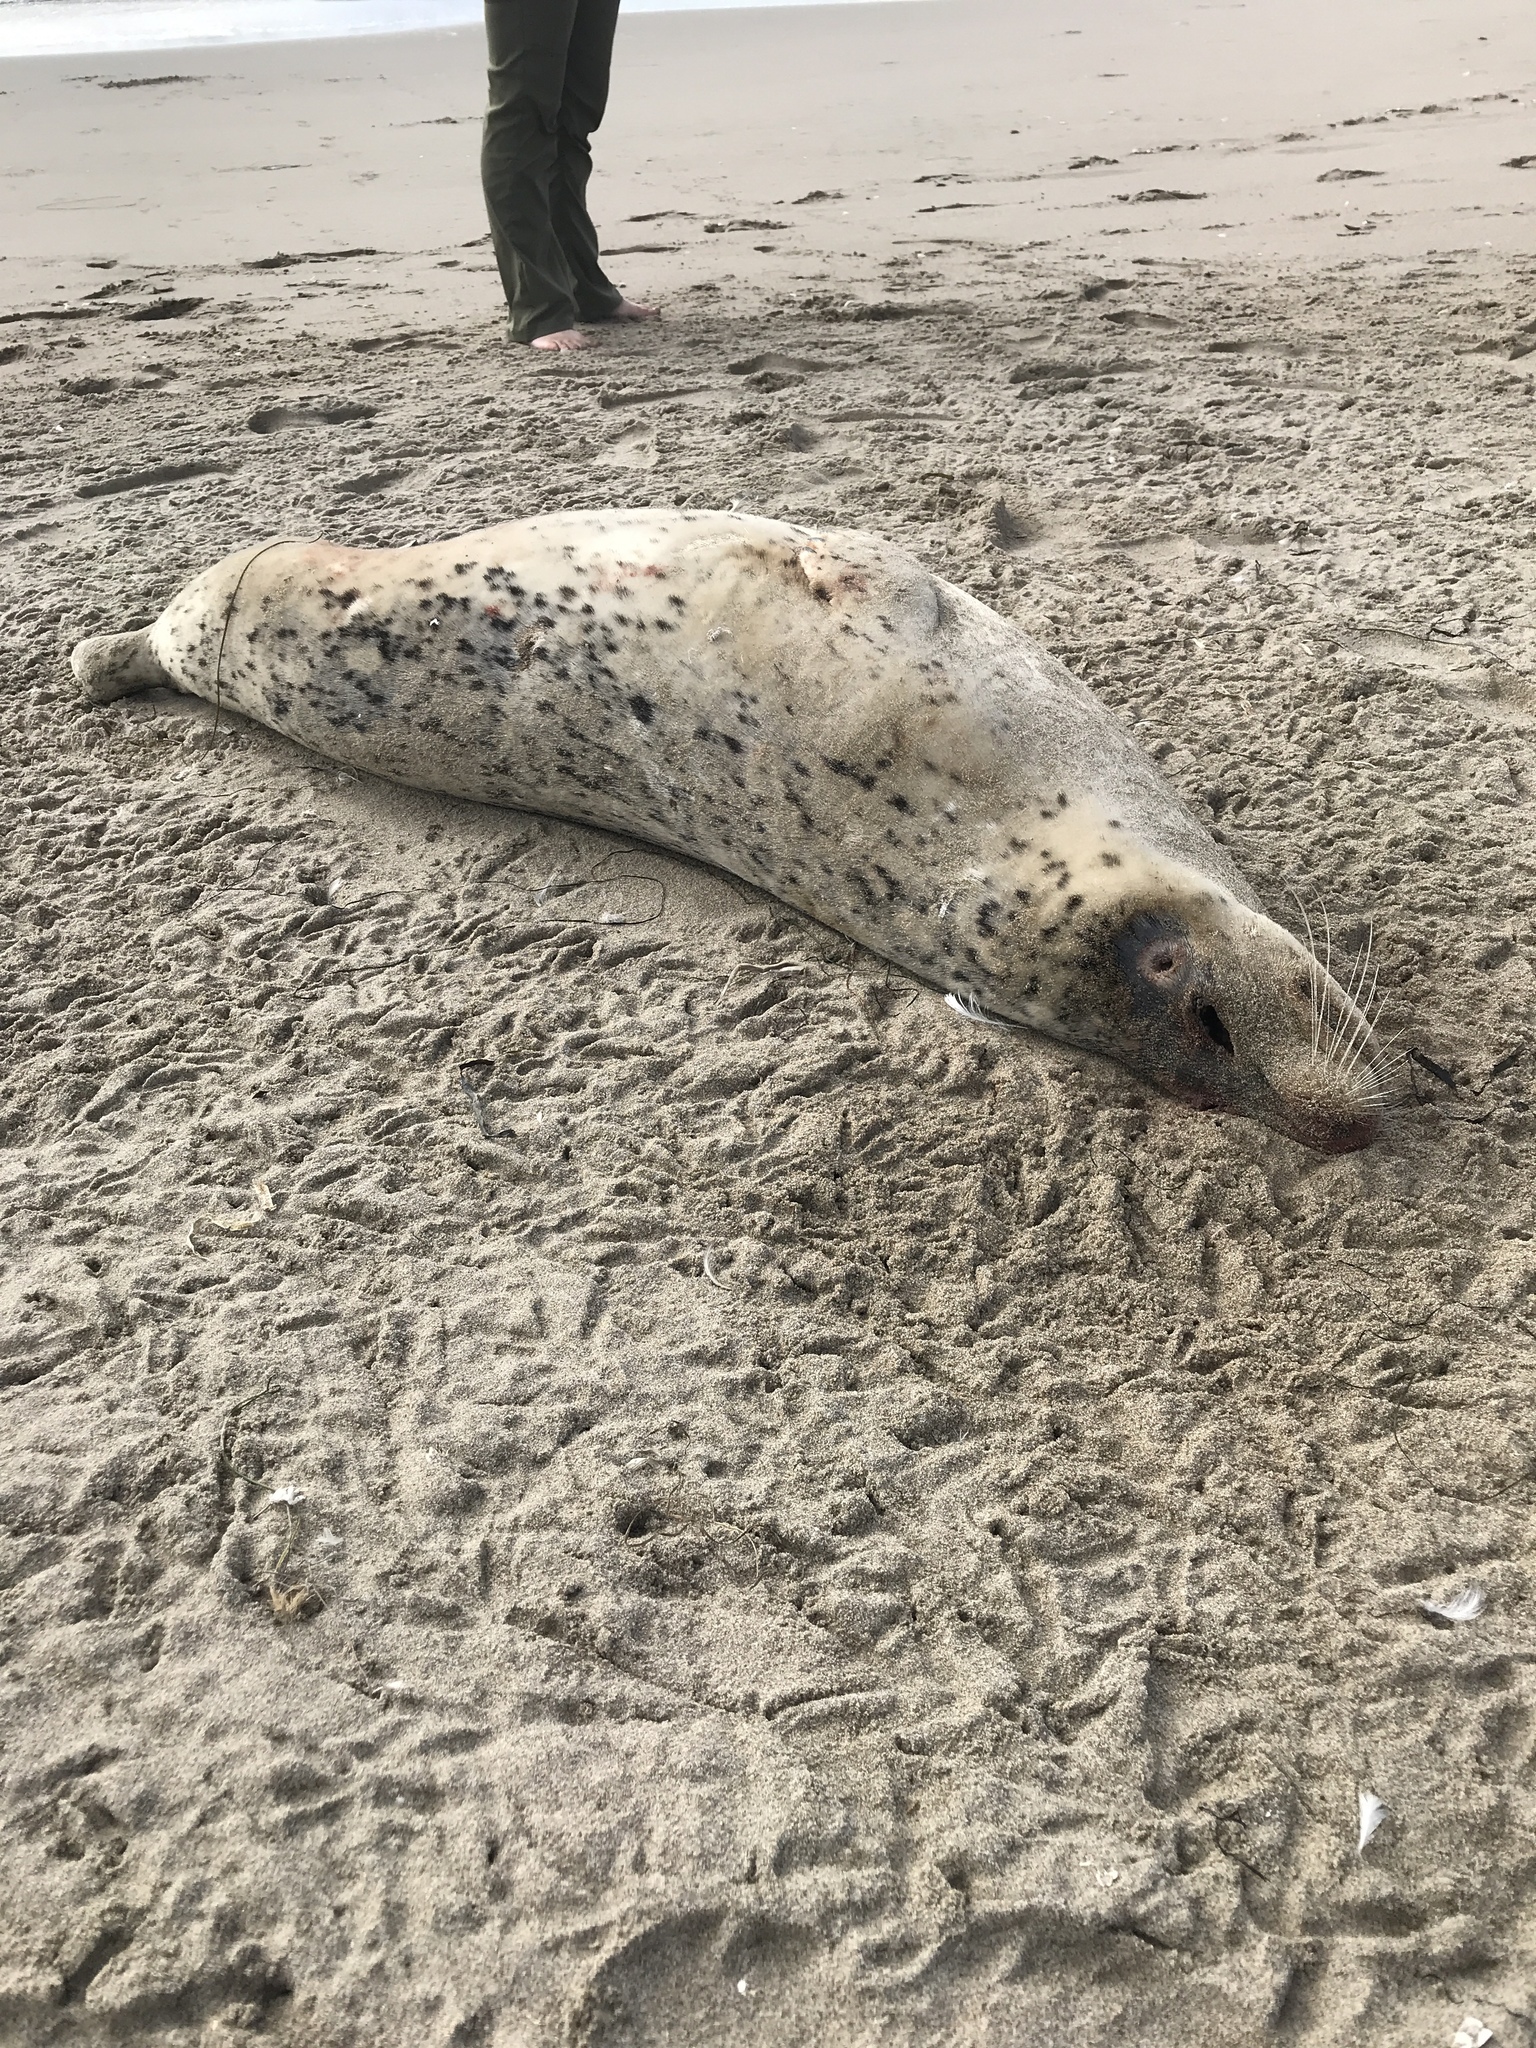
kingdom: Animalia
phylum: Chordata
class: Mammalia
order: Carnivora
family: Phocidae
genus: Phoca
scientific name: Phoca vitulina
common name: Harbor seal
